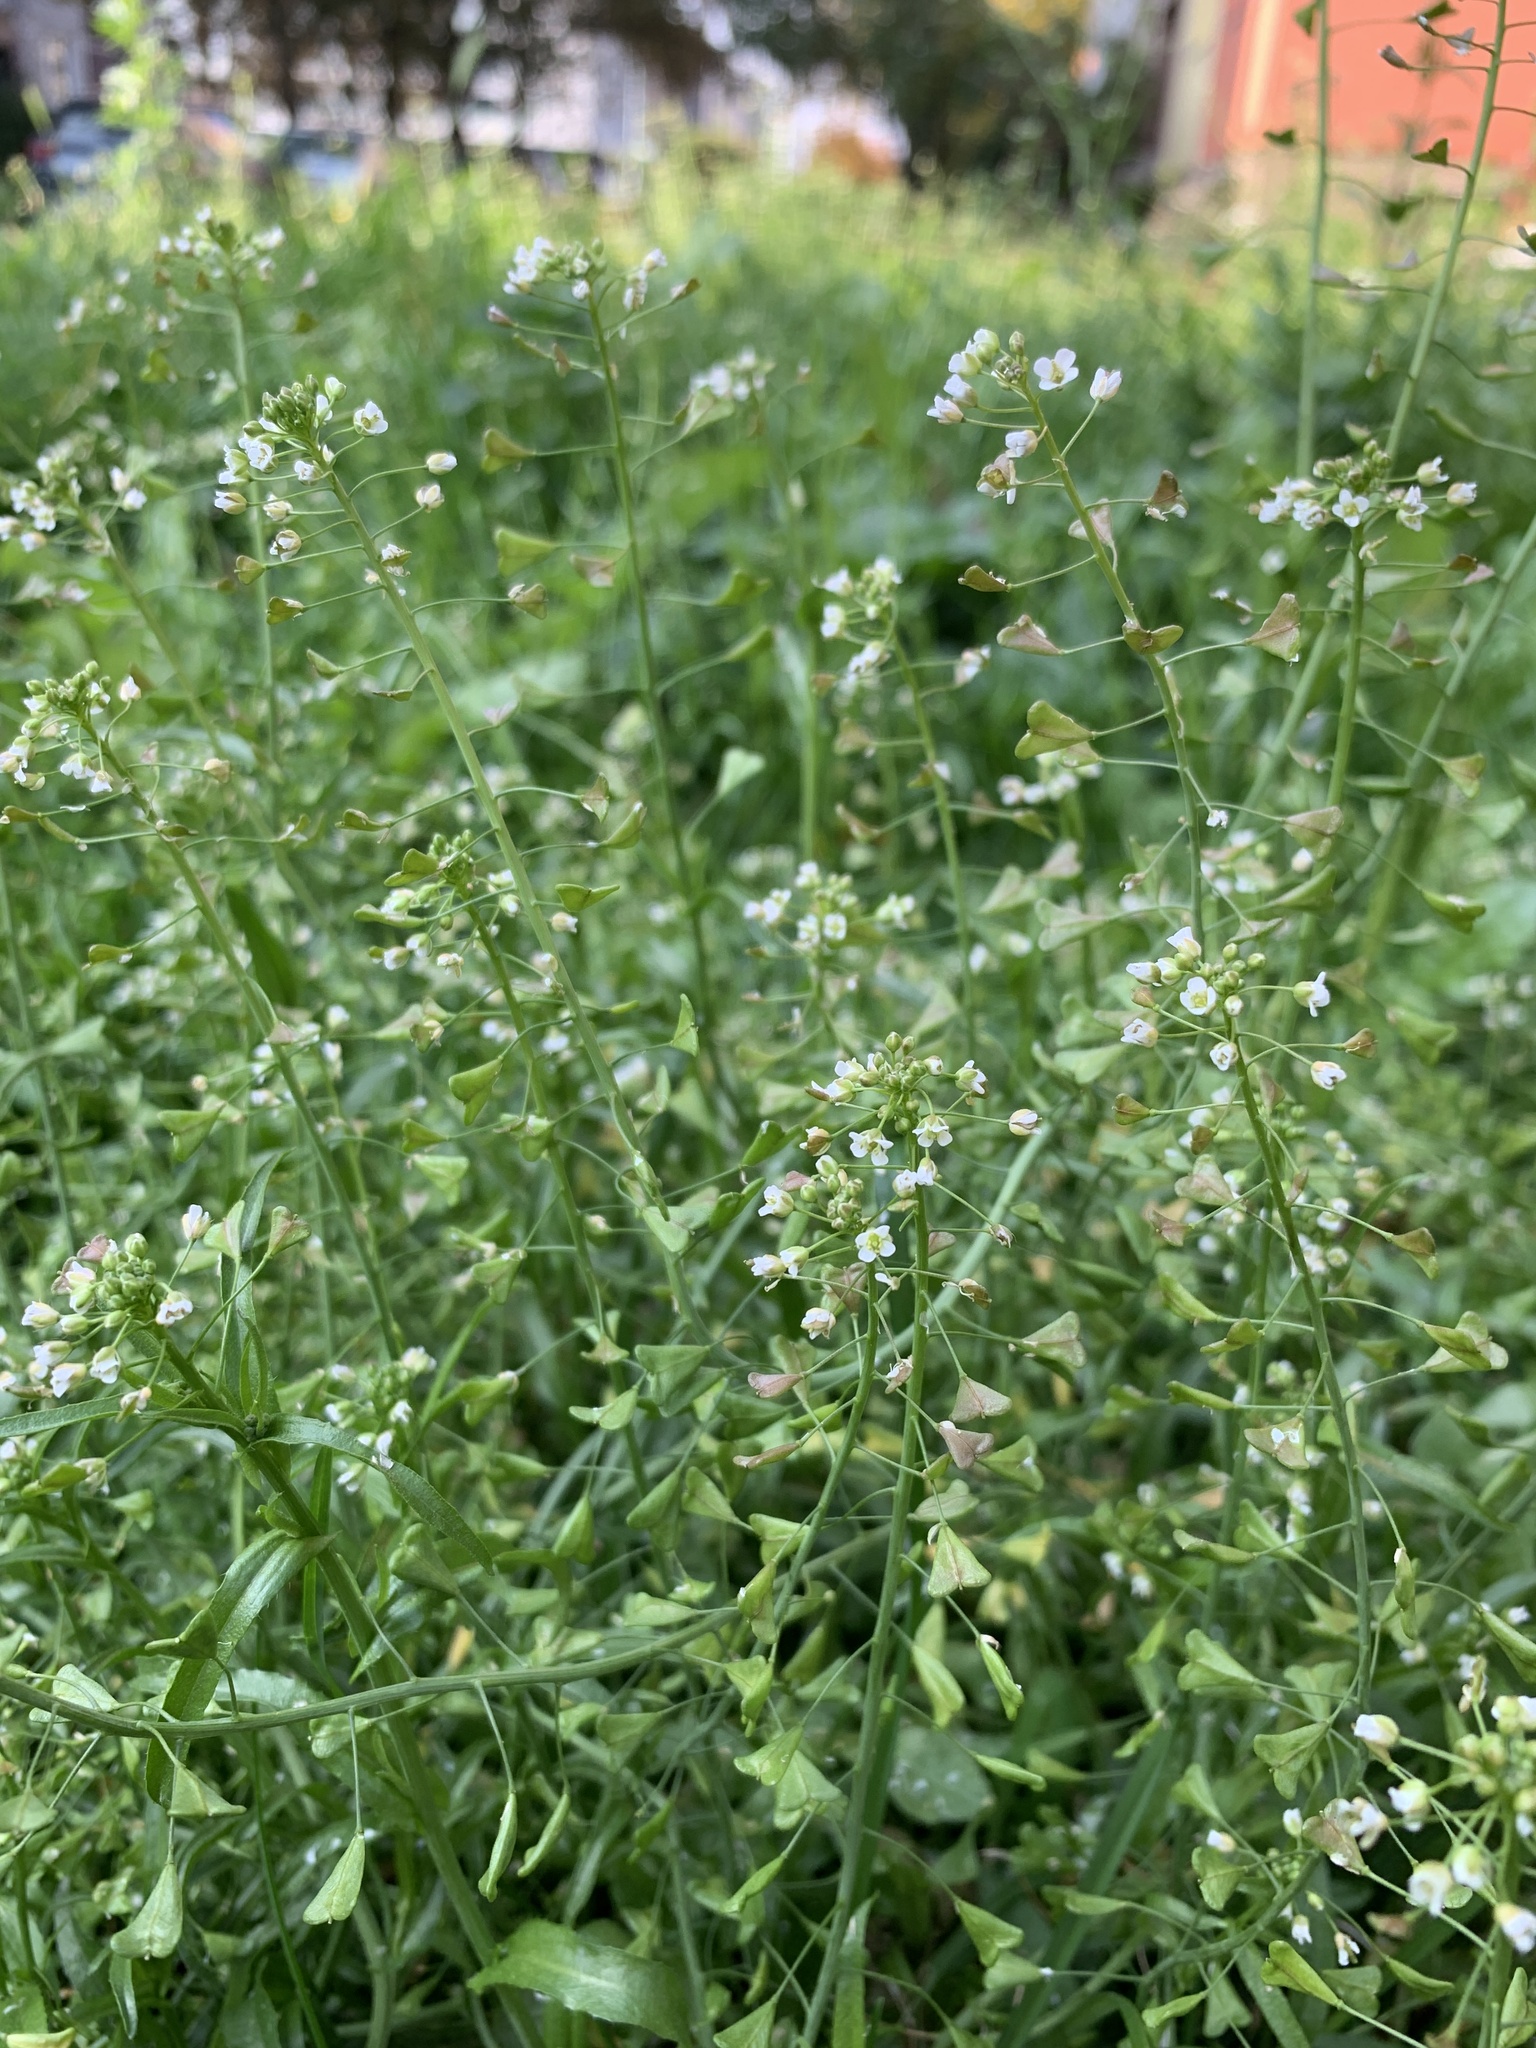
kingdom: Plantae
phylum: Tracheophyta
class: Magnoliopsida
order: Brassicales
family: Brassicaceae
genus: Capsella
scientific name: Capsella bursa-pastoris
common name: Shepherd's purse
